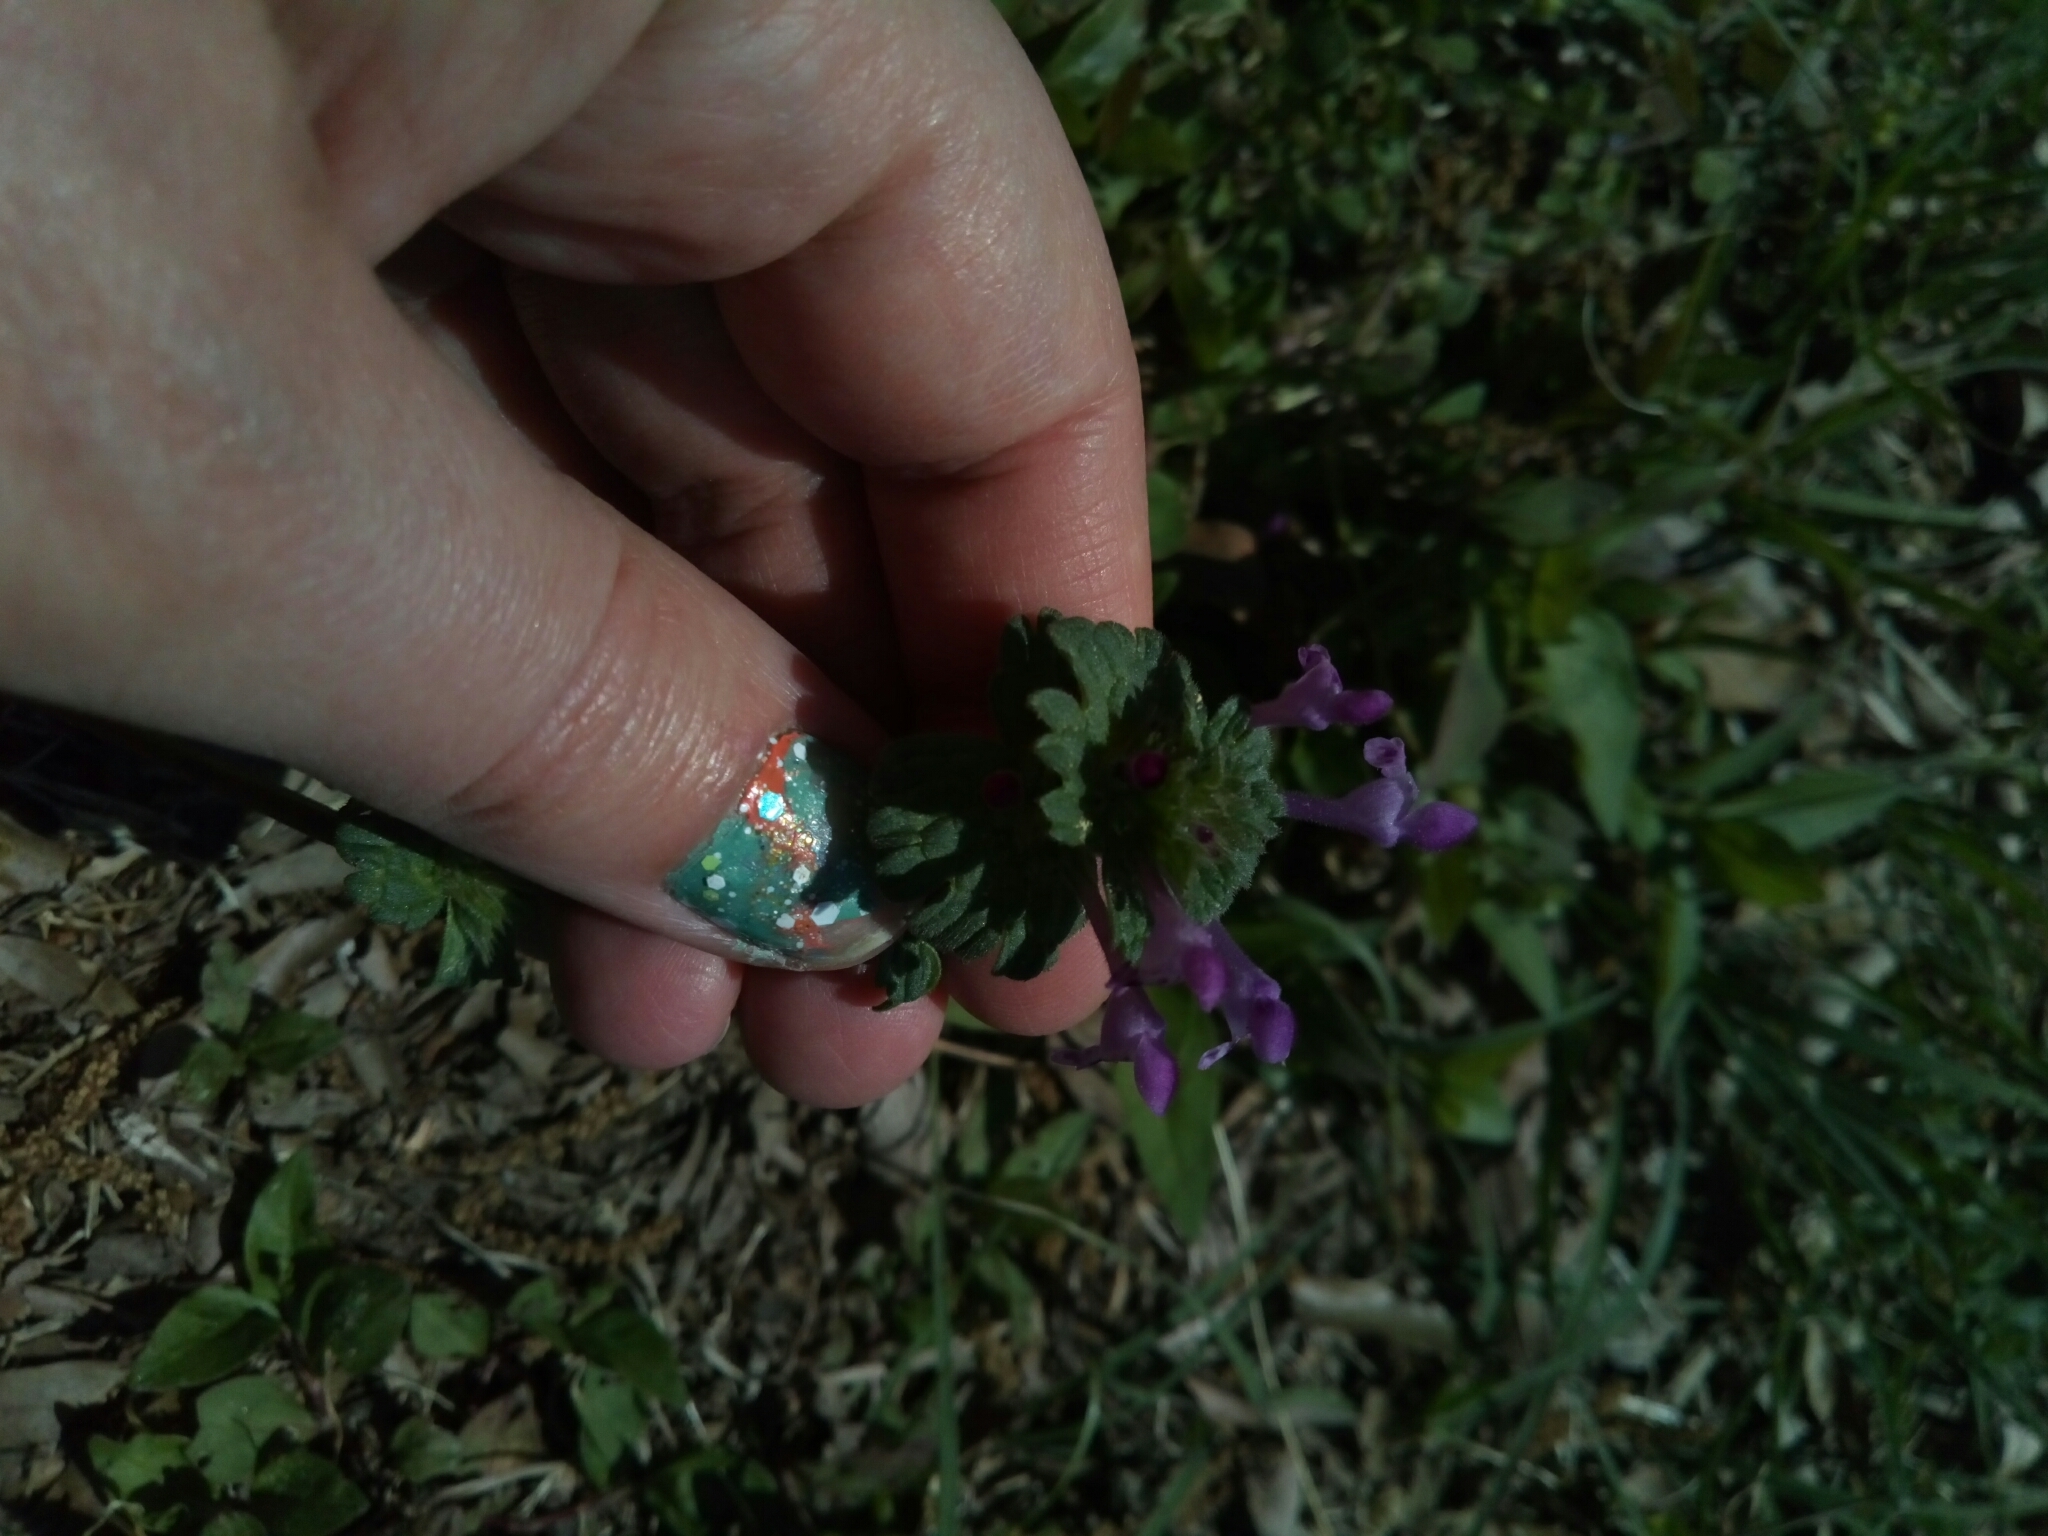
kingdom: Plantae
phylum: Tracheophyta
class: Magnoliopsida
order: Lamiales
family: Lamiaceae
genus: Lamium
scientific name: Lamium amplexicaule
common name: Henbit dead-nettle
